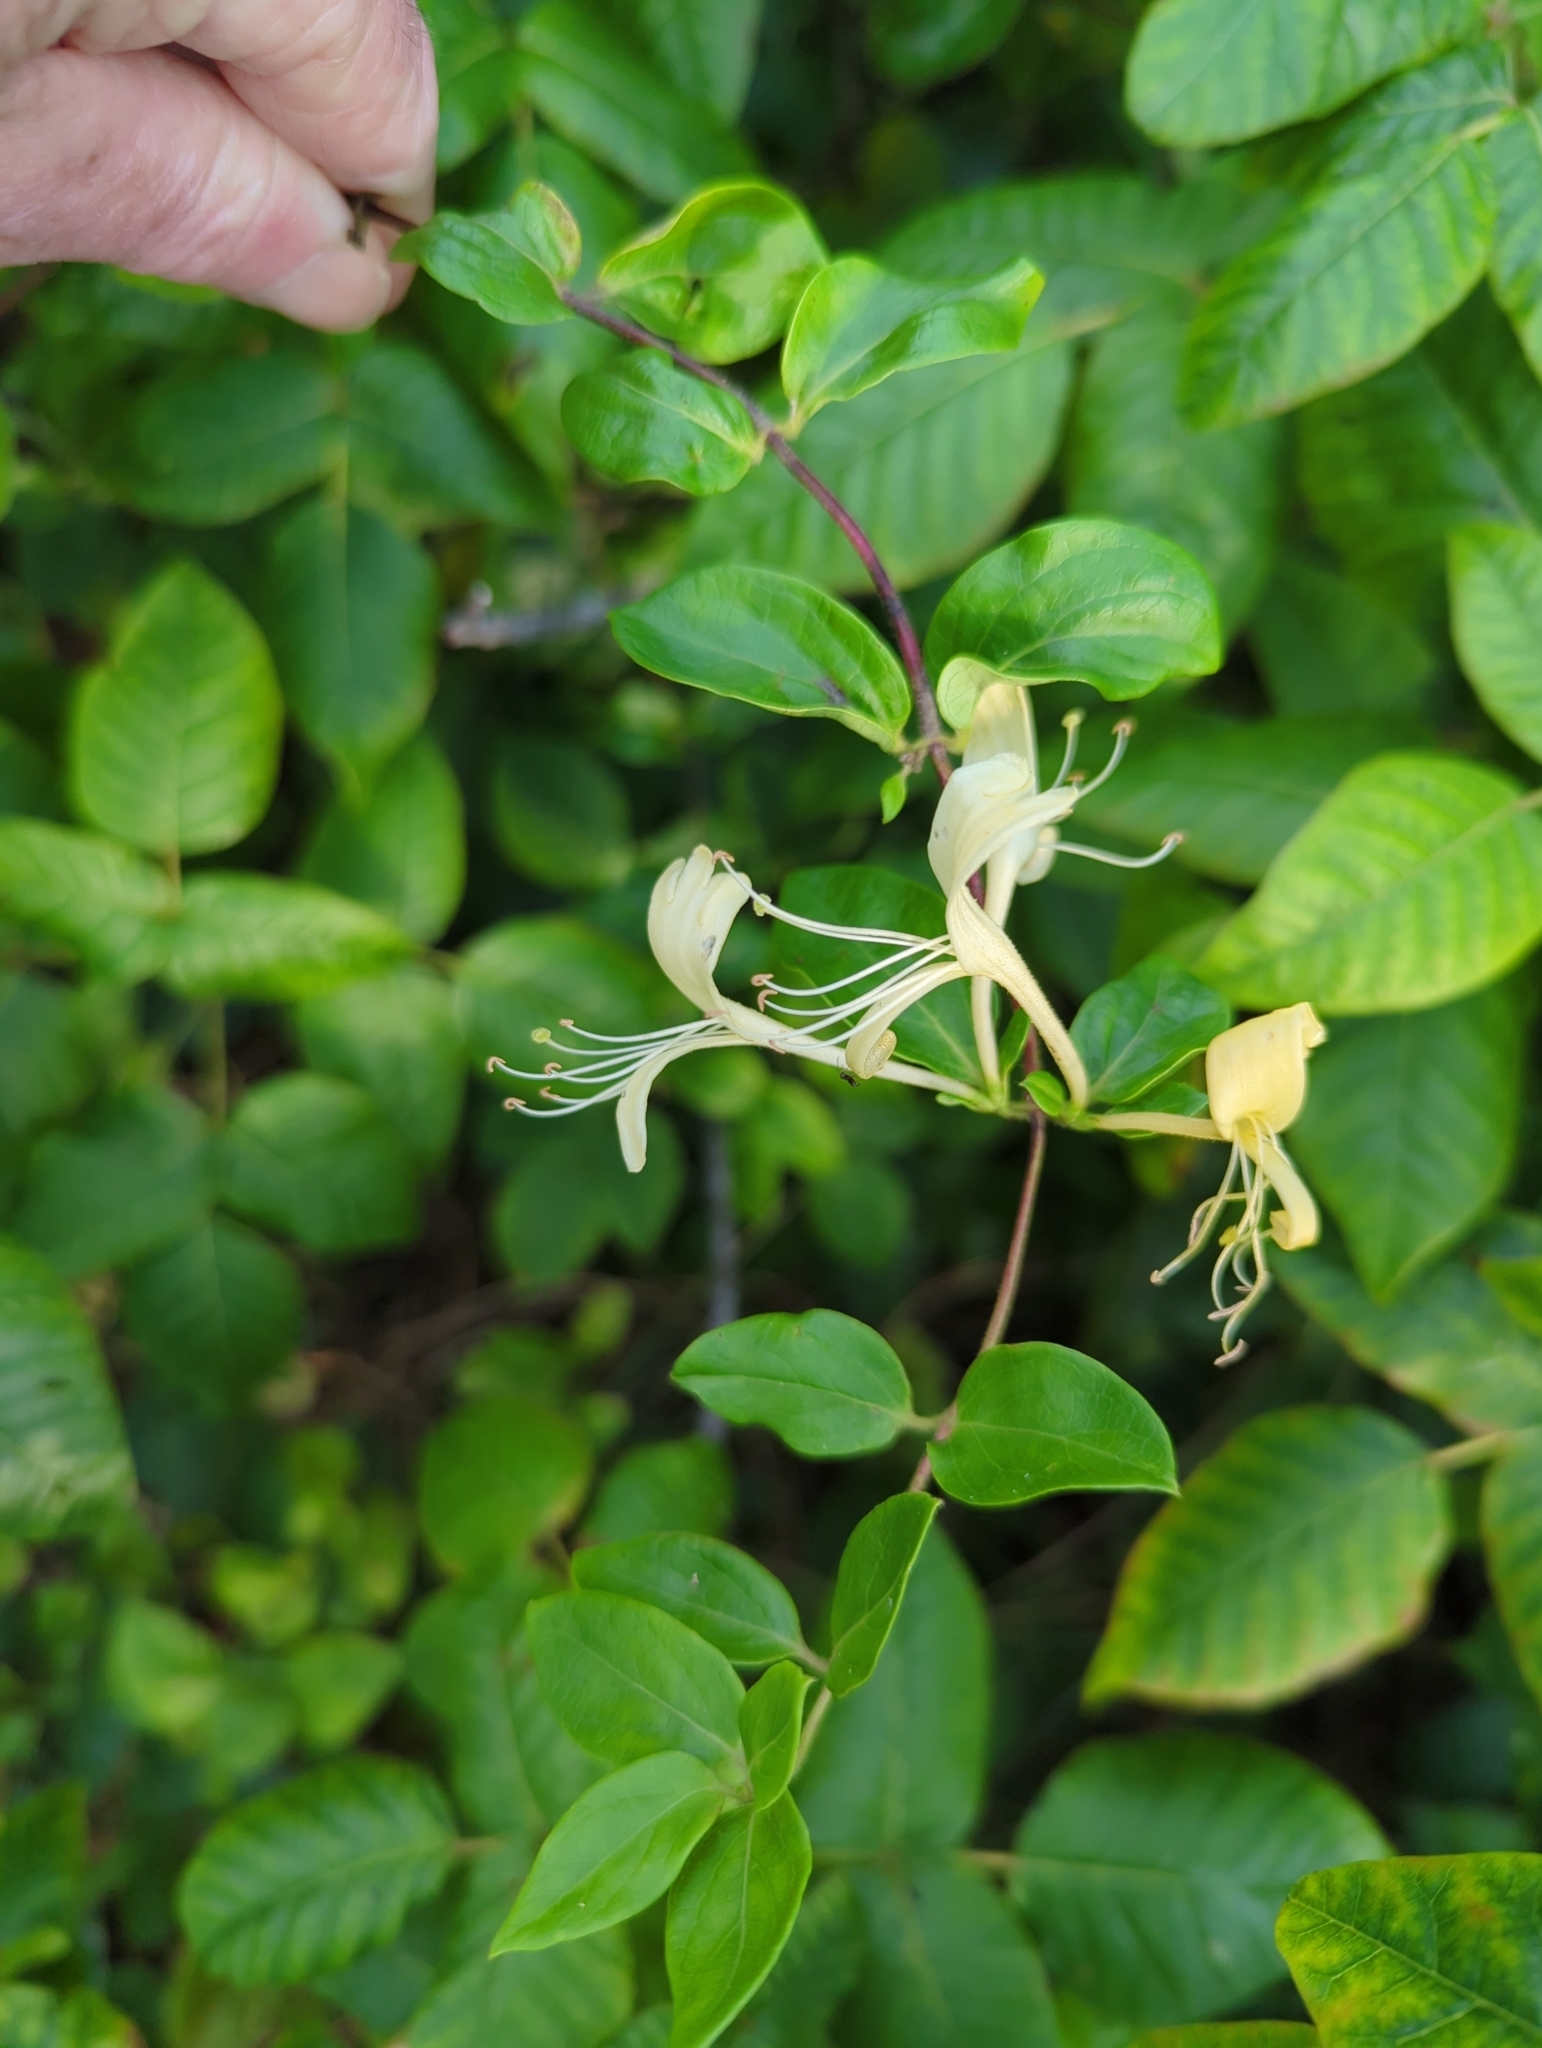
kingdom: Plantae
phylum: Tracheophyta
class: Magnoliopsida
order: Dipsacales
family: Caprifoliaceae
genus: Lonicera
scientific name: Lonicera japonica
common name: Japanese honeysuckle
